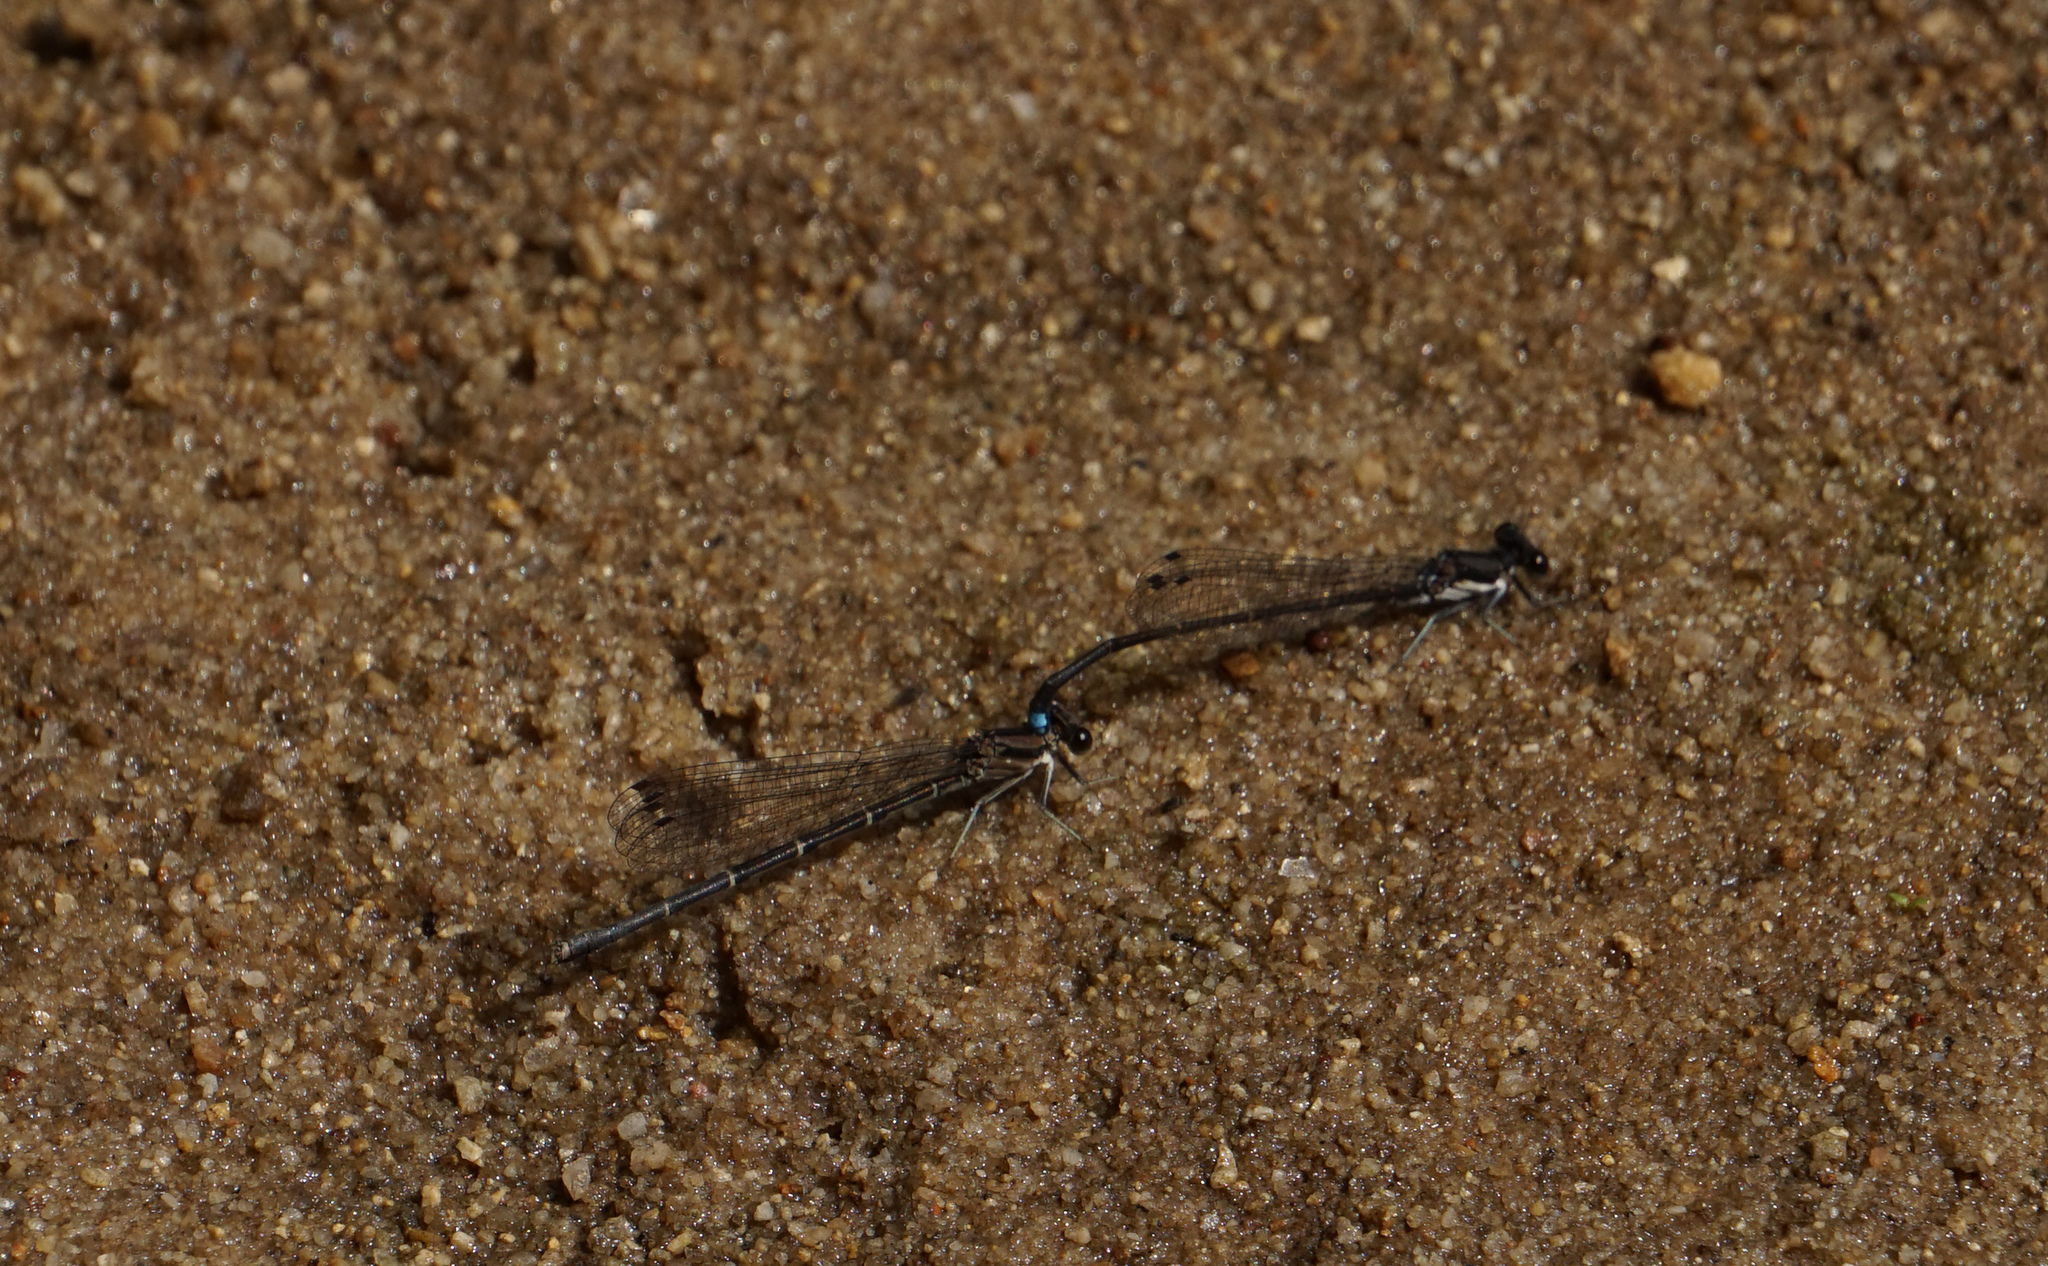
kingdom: Animalia
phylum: Arthropoda
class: Insecta
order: Odonata
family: Coenagrionidae
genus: Argia
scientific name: Argia tibialis
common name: Blue-tipped dancer
